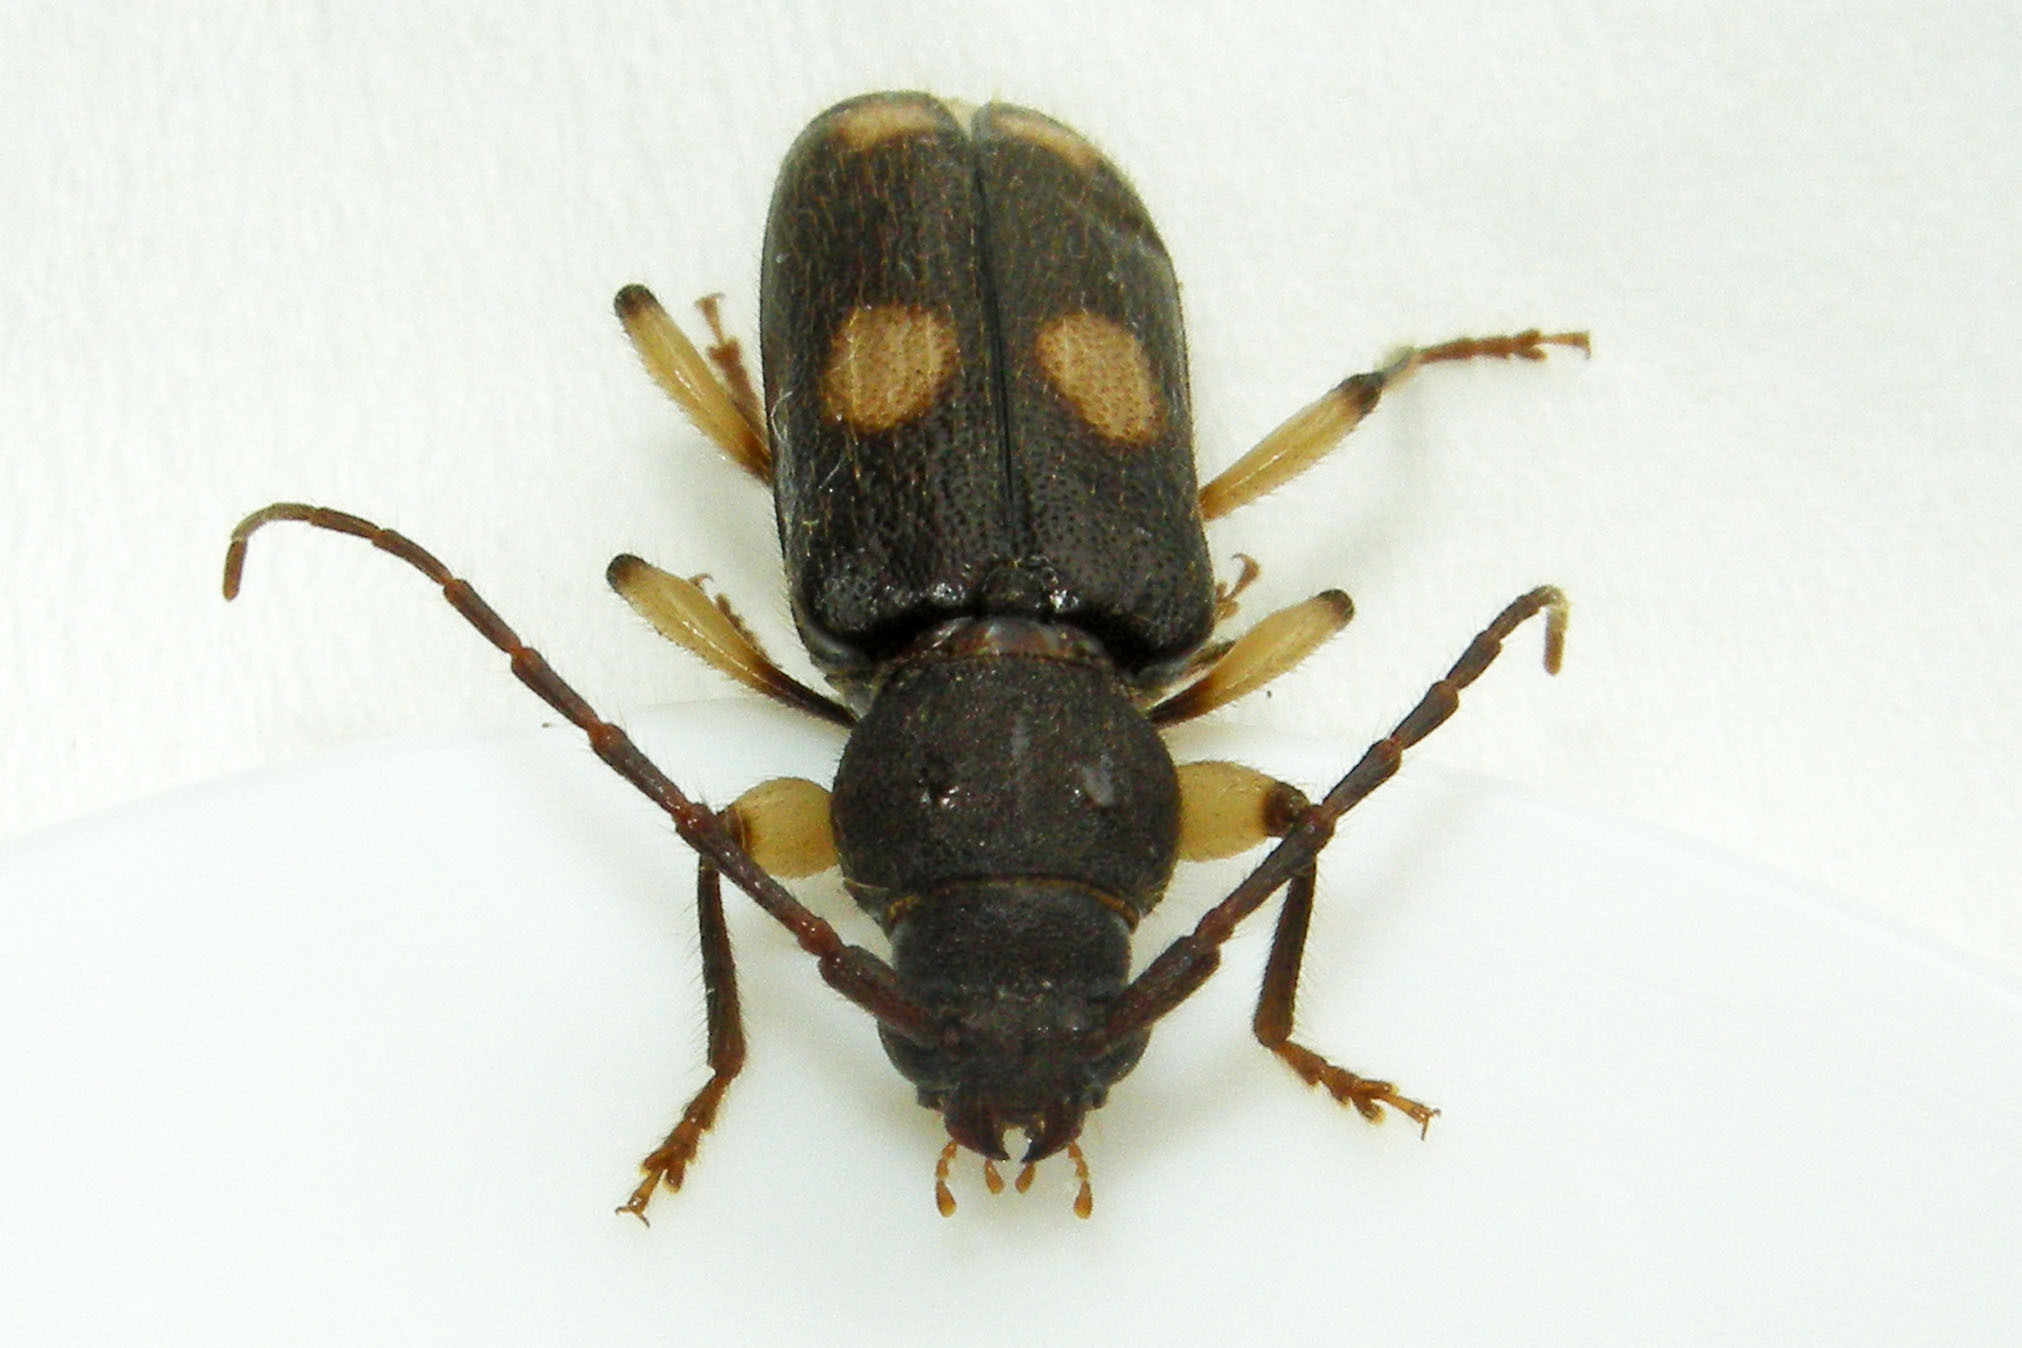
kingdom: Animalia
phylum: Arthropoda
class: Insecta
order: Coleoptera
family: Cerambycidae
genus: Tylonotus
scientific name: Tylonotus bimaculatus
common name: Ash and privet borer
